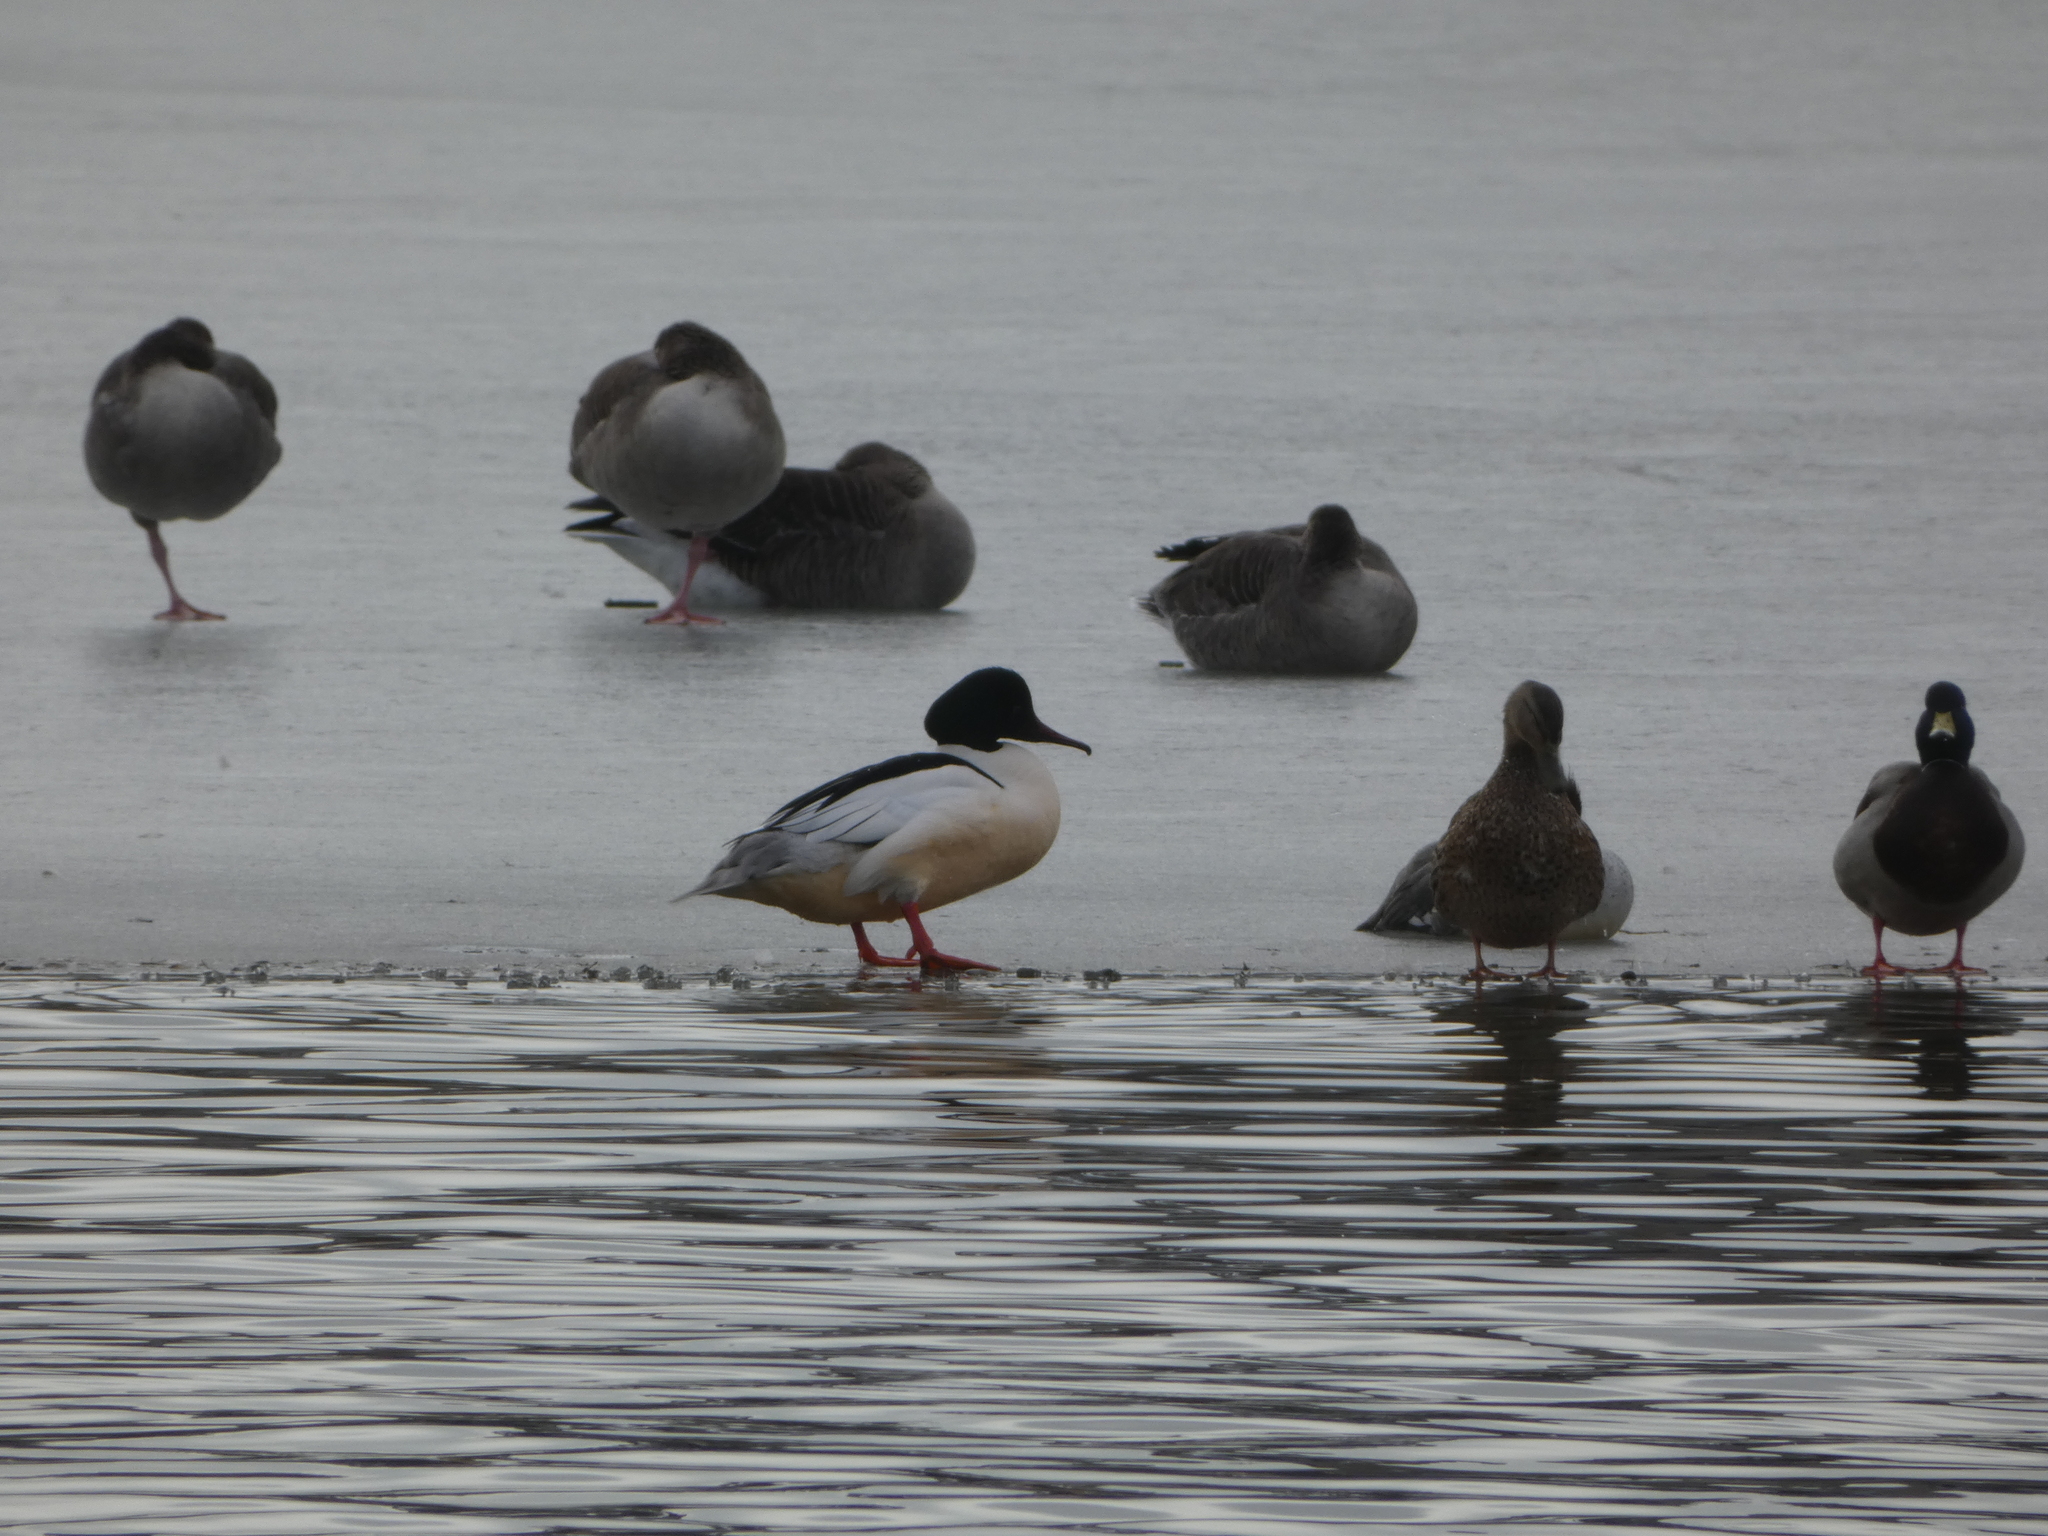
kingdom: Animalia
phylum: Chordata
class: Aves
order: Anseriformes
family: Anatidae
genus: Mergus
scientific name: Mergus merganser
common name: Common merganser
